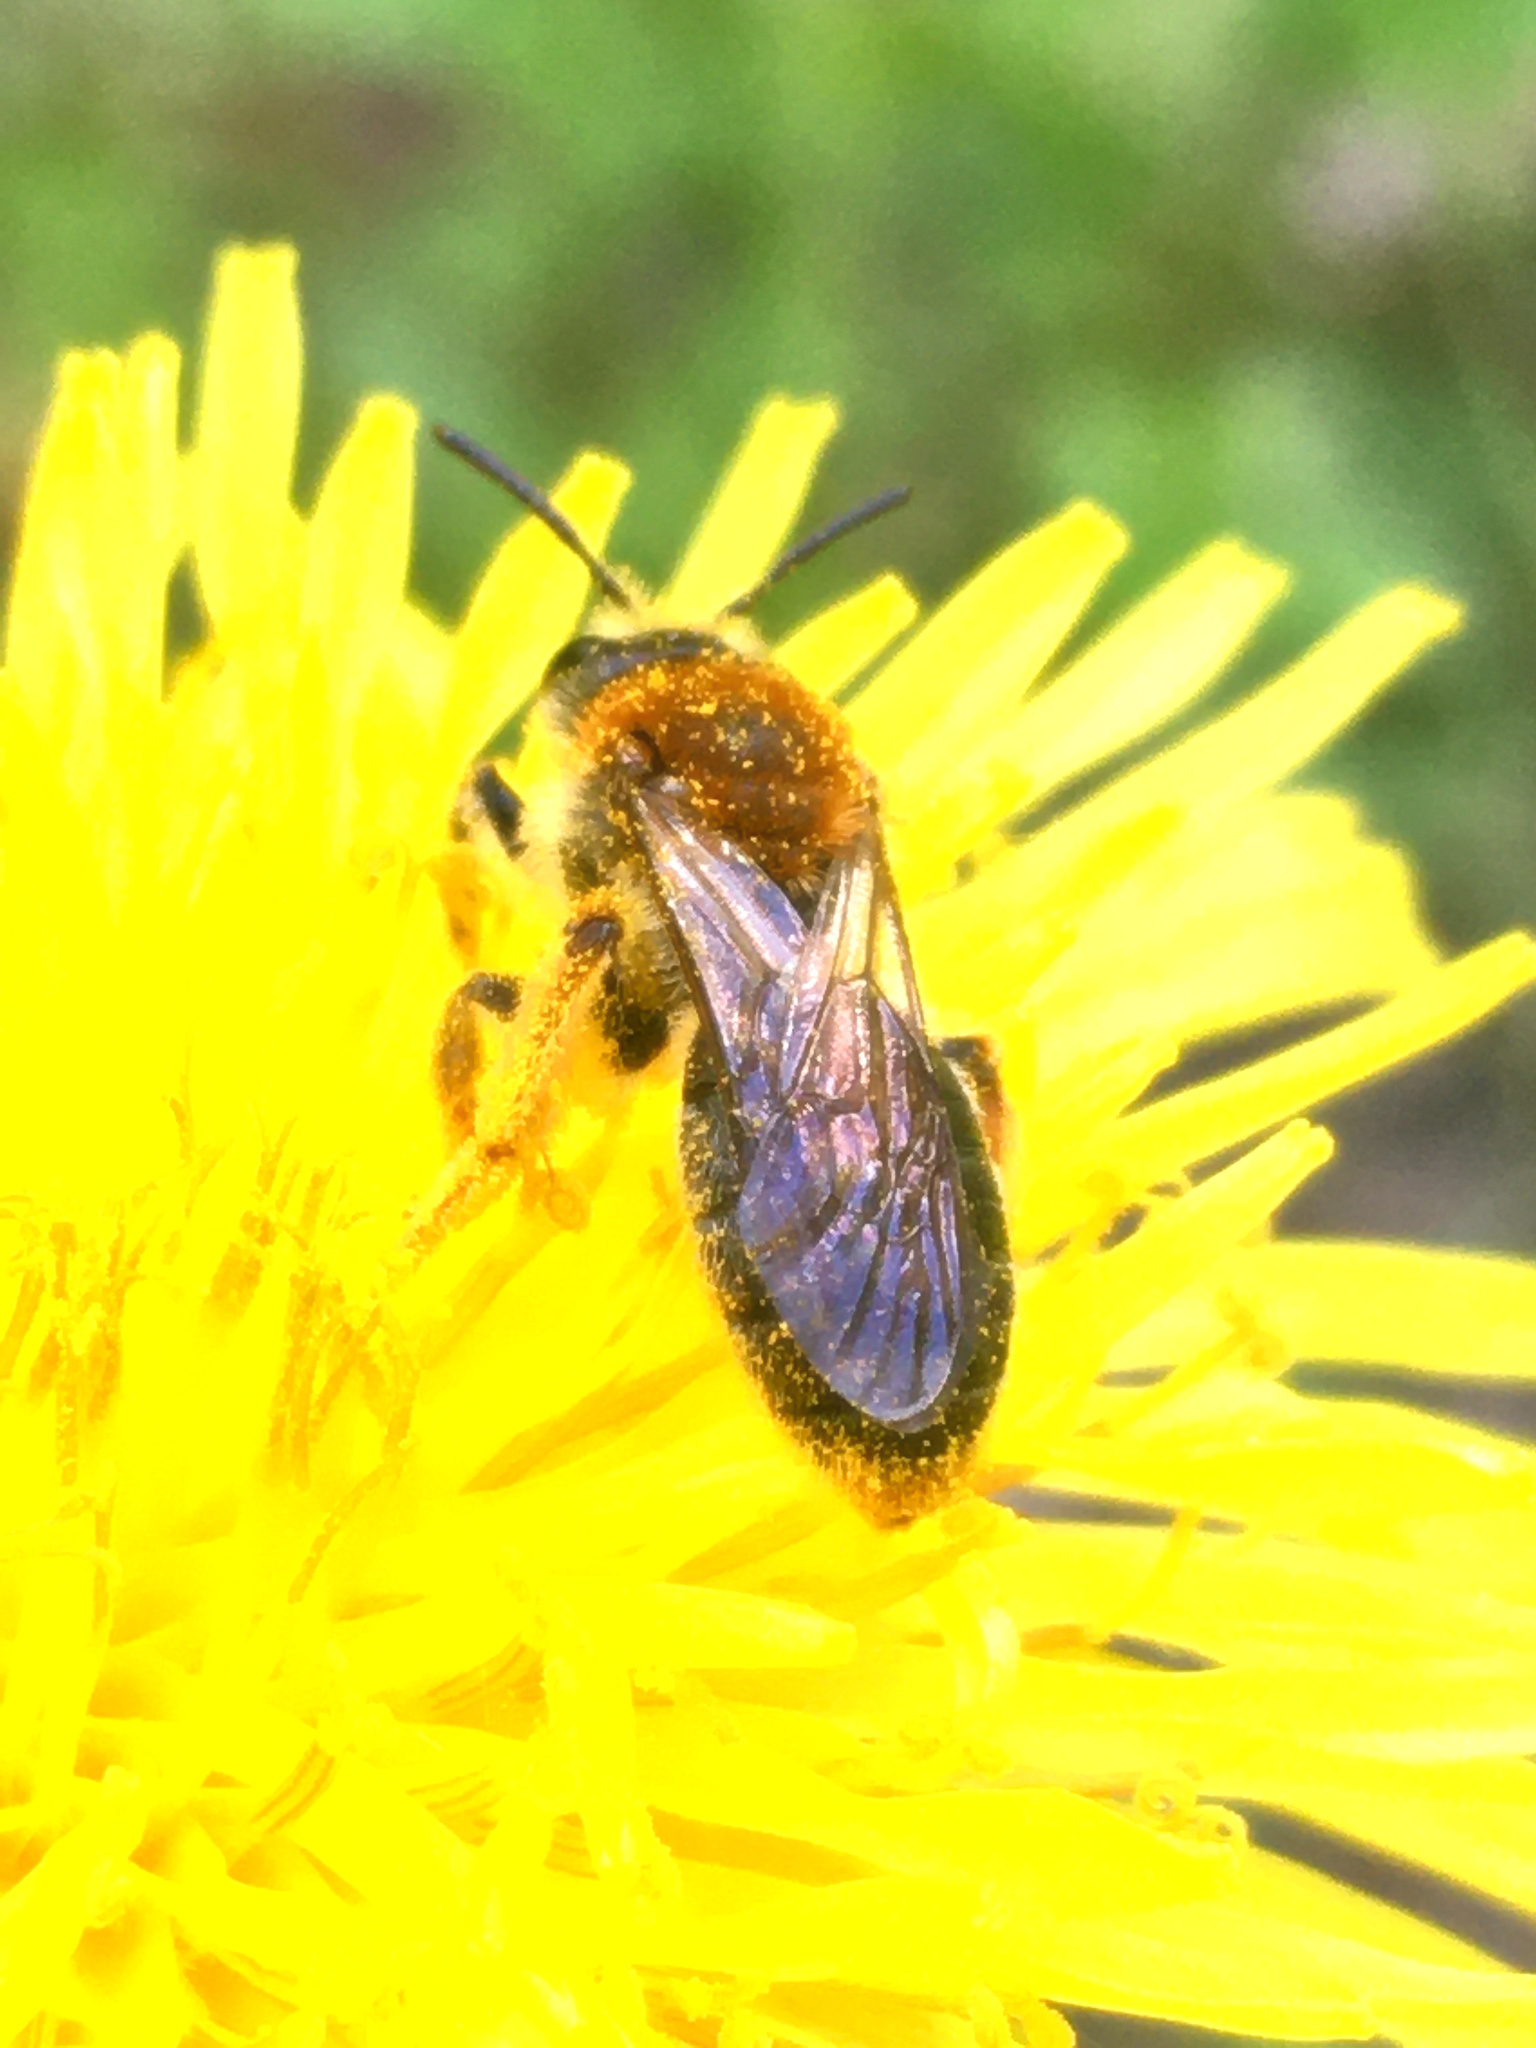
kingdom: Animalia
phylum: Arthropoda
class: Insecta
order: Hymenoptera
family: Andrenidae
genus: Andrena
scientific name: Andrena haemorrhoa
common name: Early mining bee
